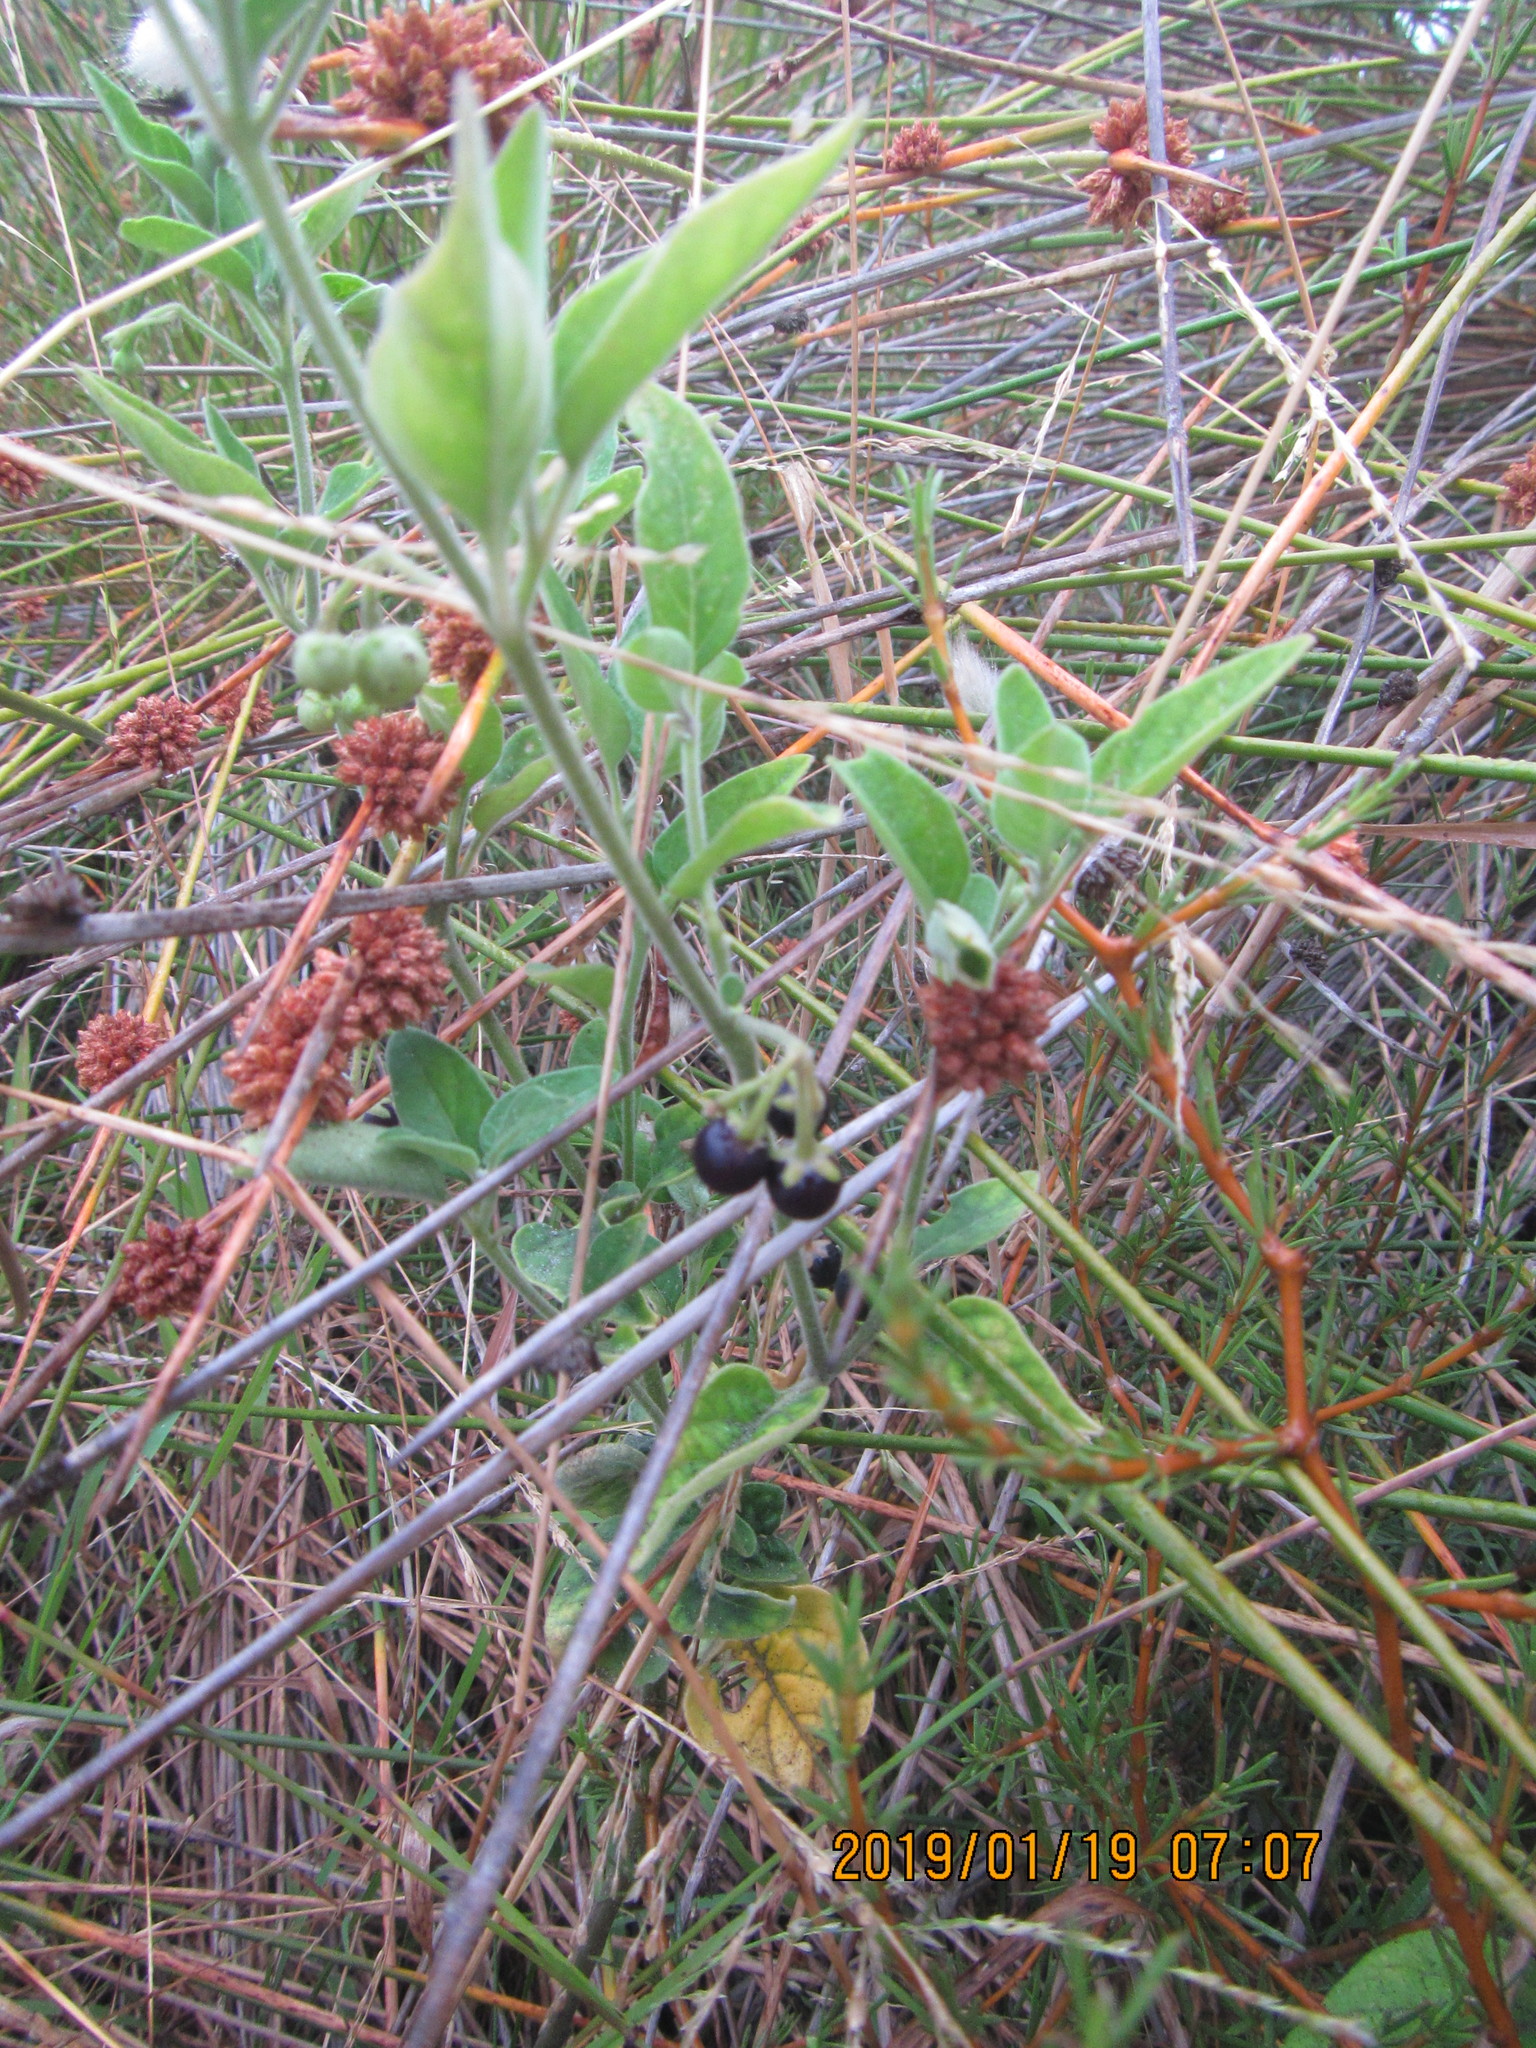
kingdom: Plantae
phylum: Tracheophyta
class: Magnoliopsida
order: Solanales
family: Solanaceae
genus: Solanum
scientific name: Solanum chenopodioides
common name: Tall nightshade
